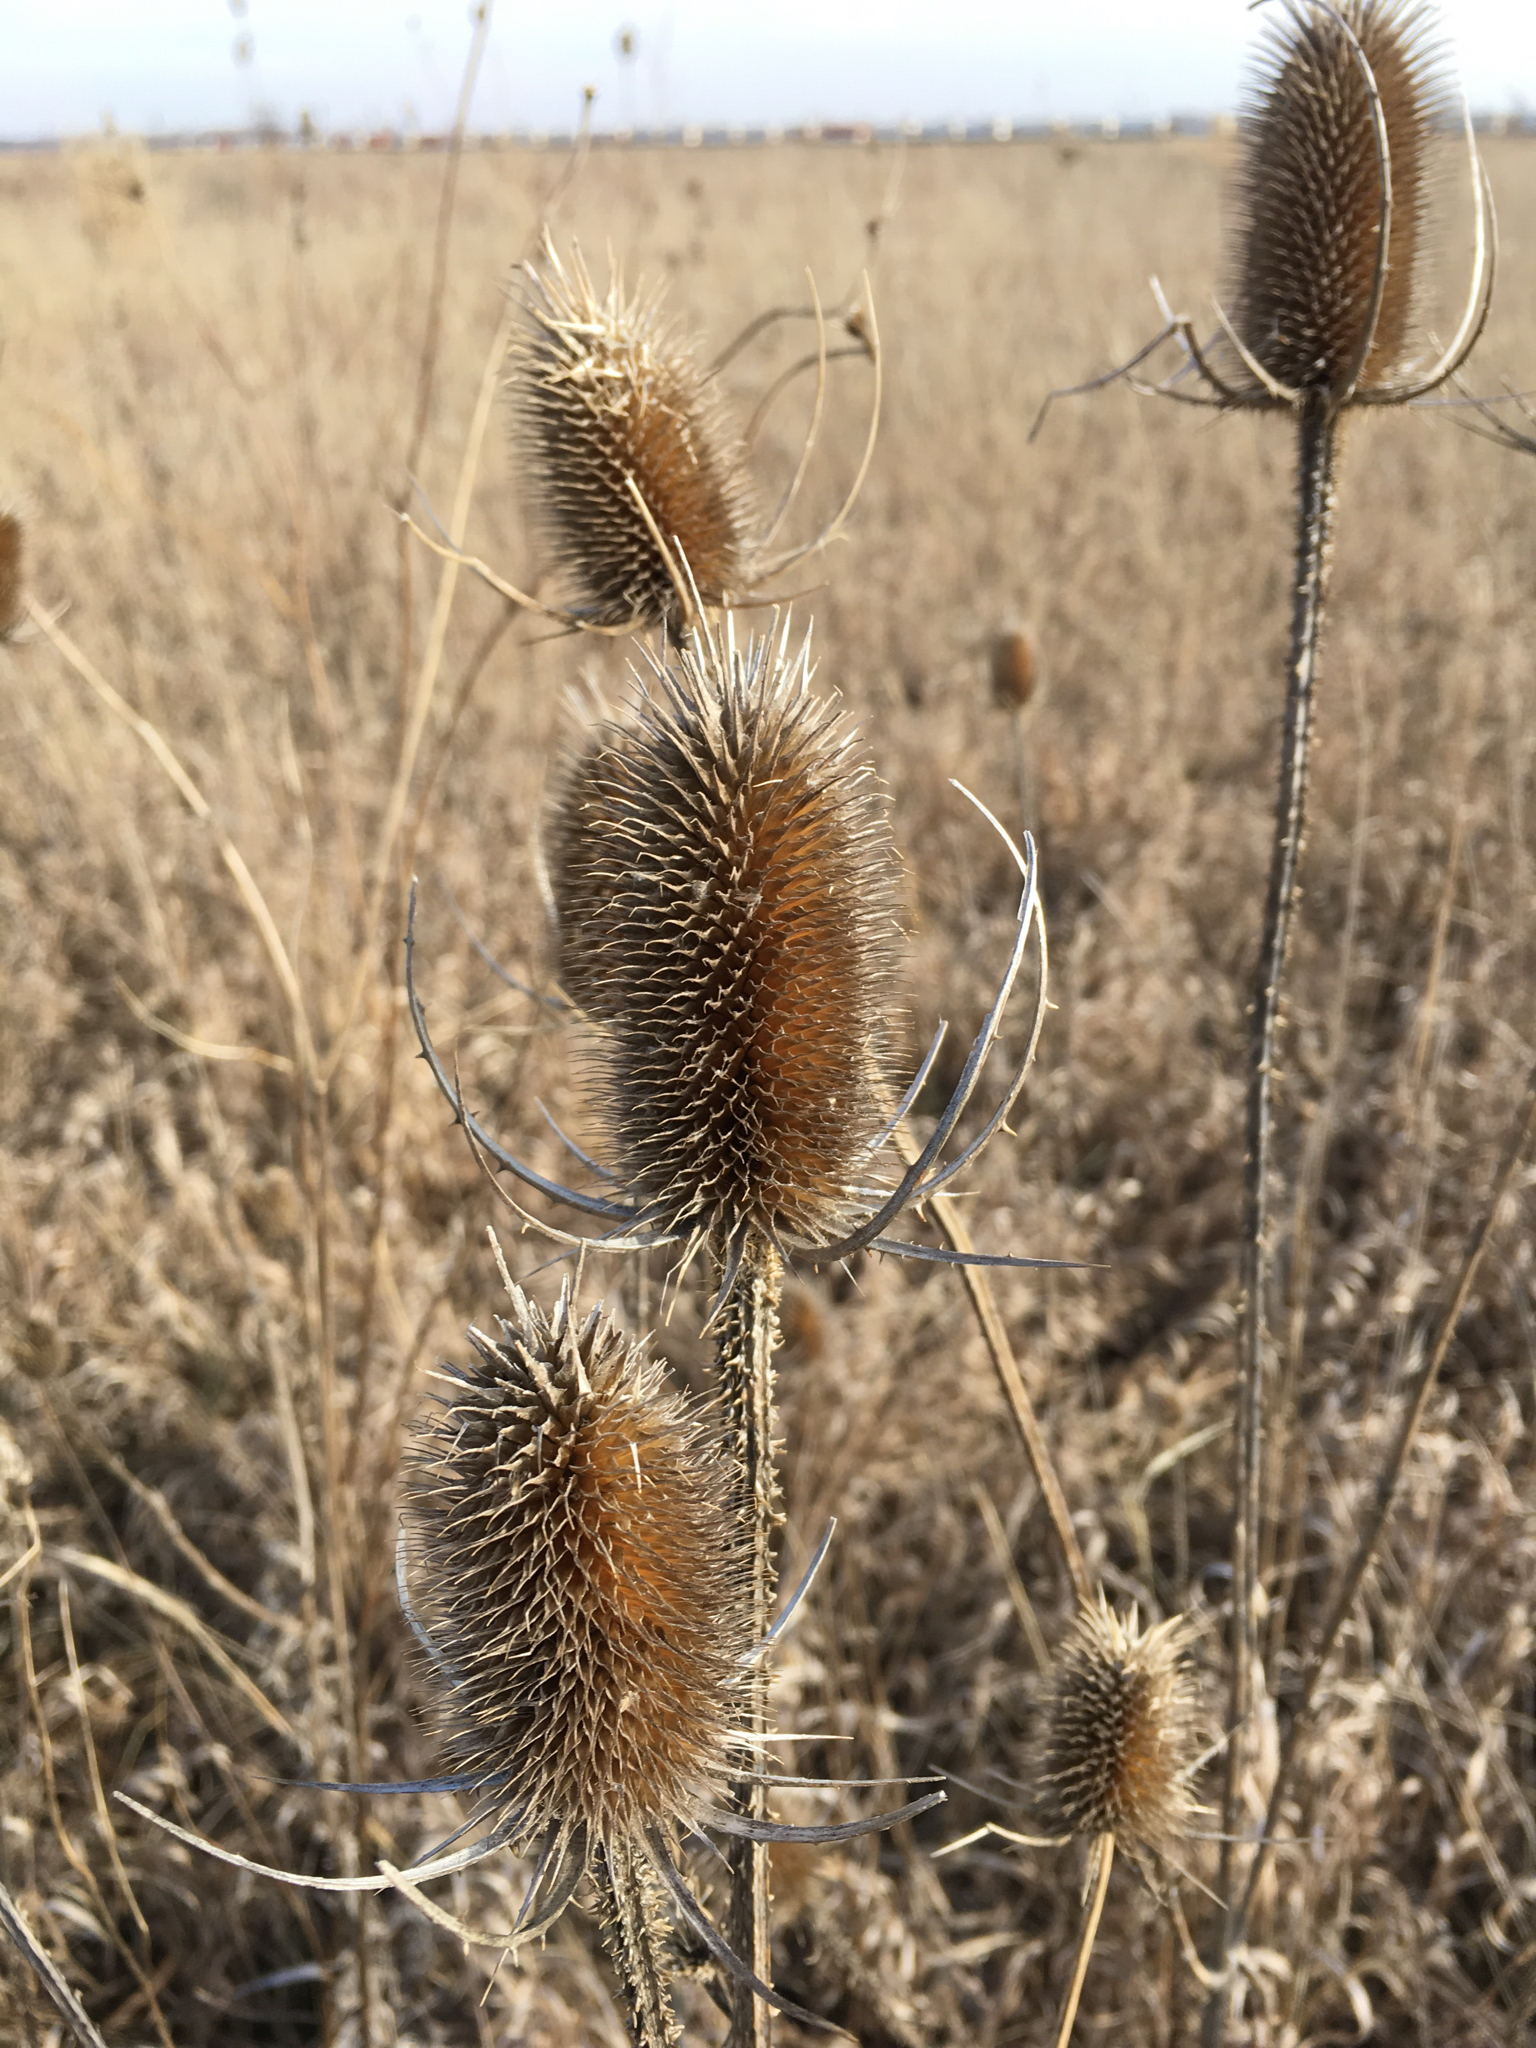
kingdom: Plantae
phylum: Tracheophyta
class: Magnoliopsida
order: Dipsacales
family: Caprifoliaceae
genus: Dipsacus
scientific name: Dipsacus fullonum
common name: Teasel
